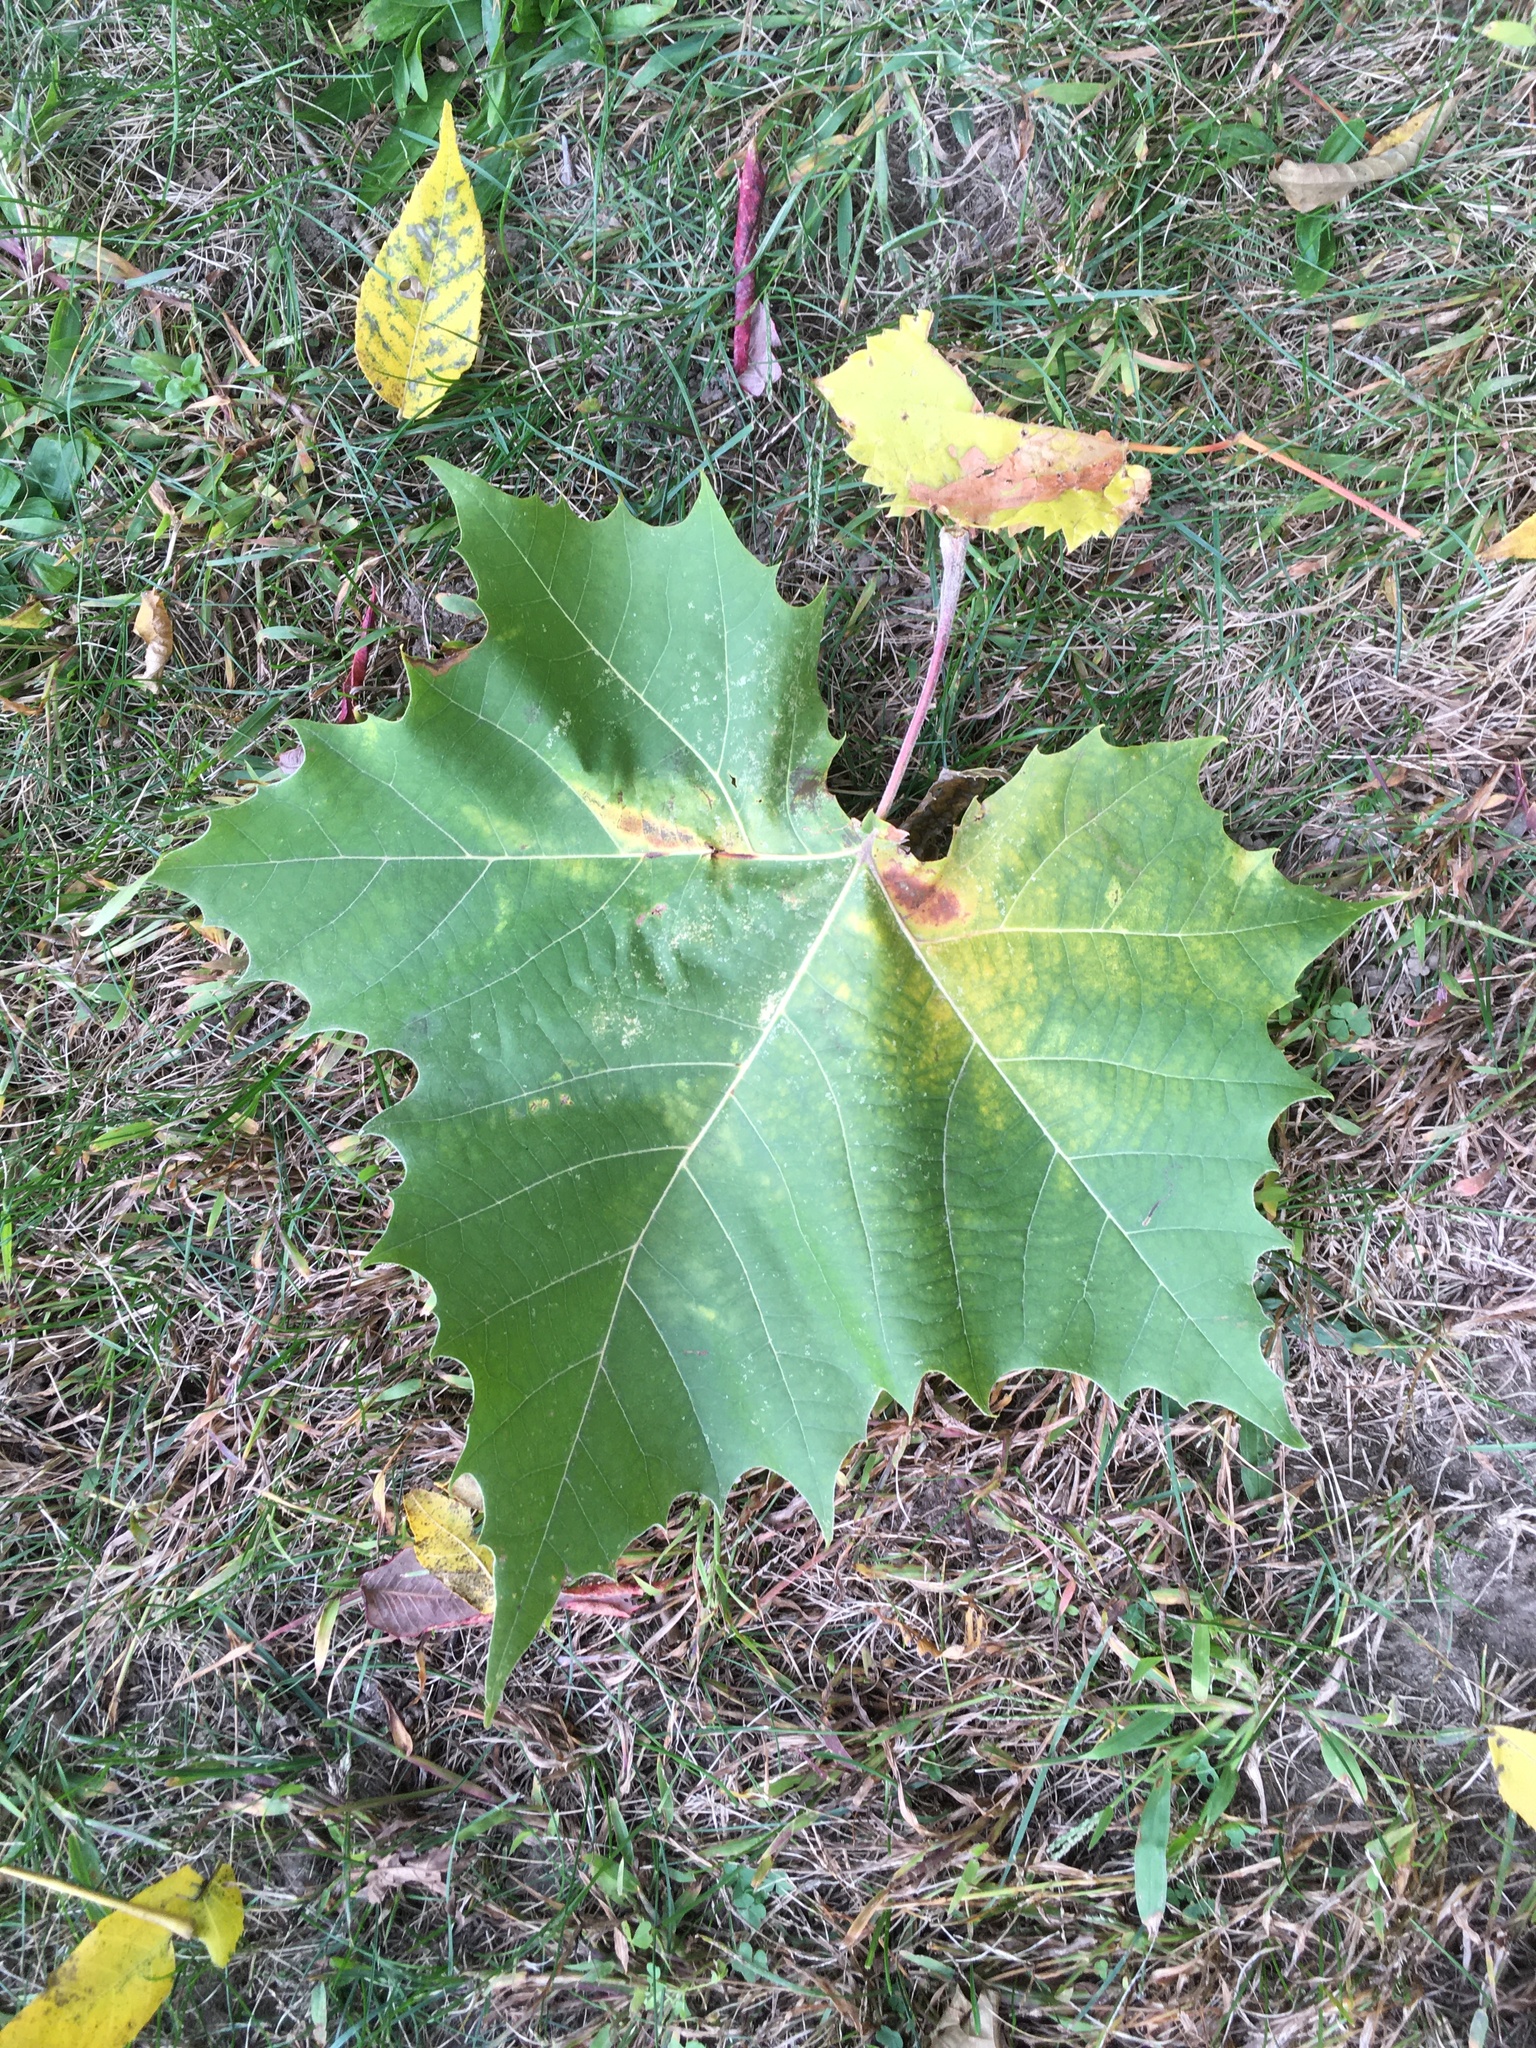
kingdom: Plantae
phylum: Tracheophyta
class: Magnoliopsida
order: Proteales
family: Platanaceae
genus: Platanus
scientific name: Platanus occidentalis
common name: American sycamore
